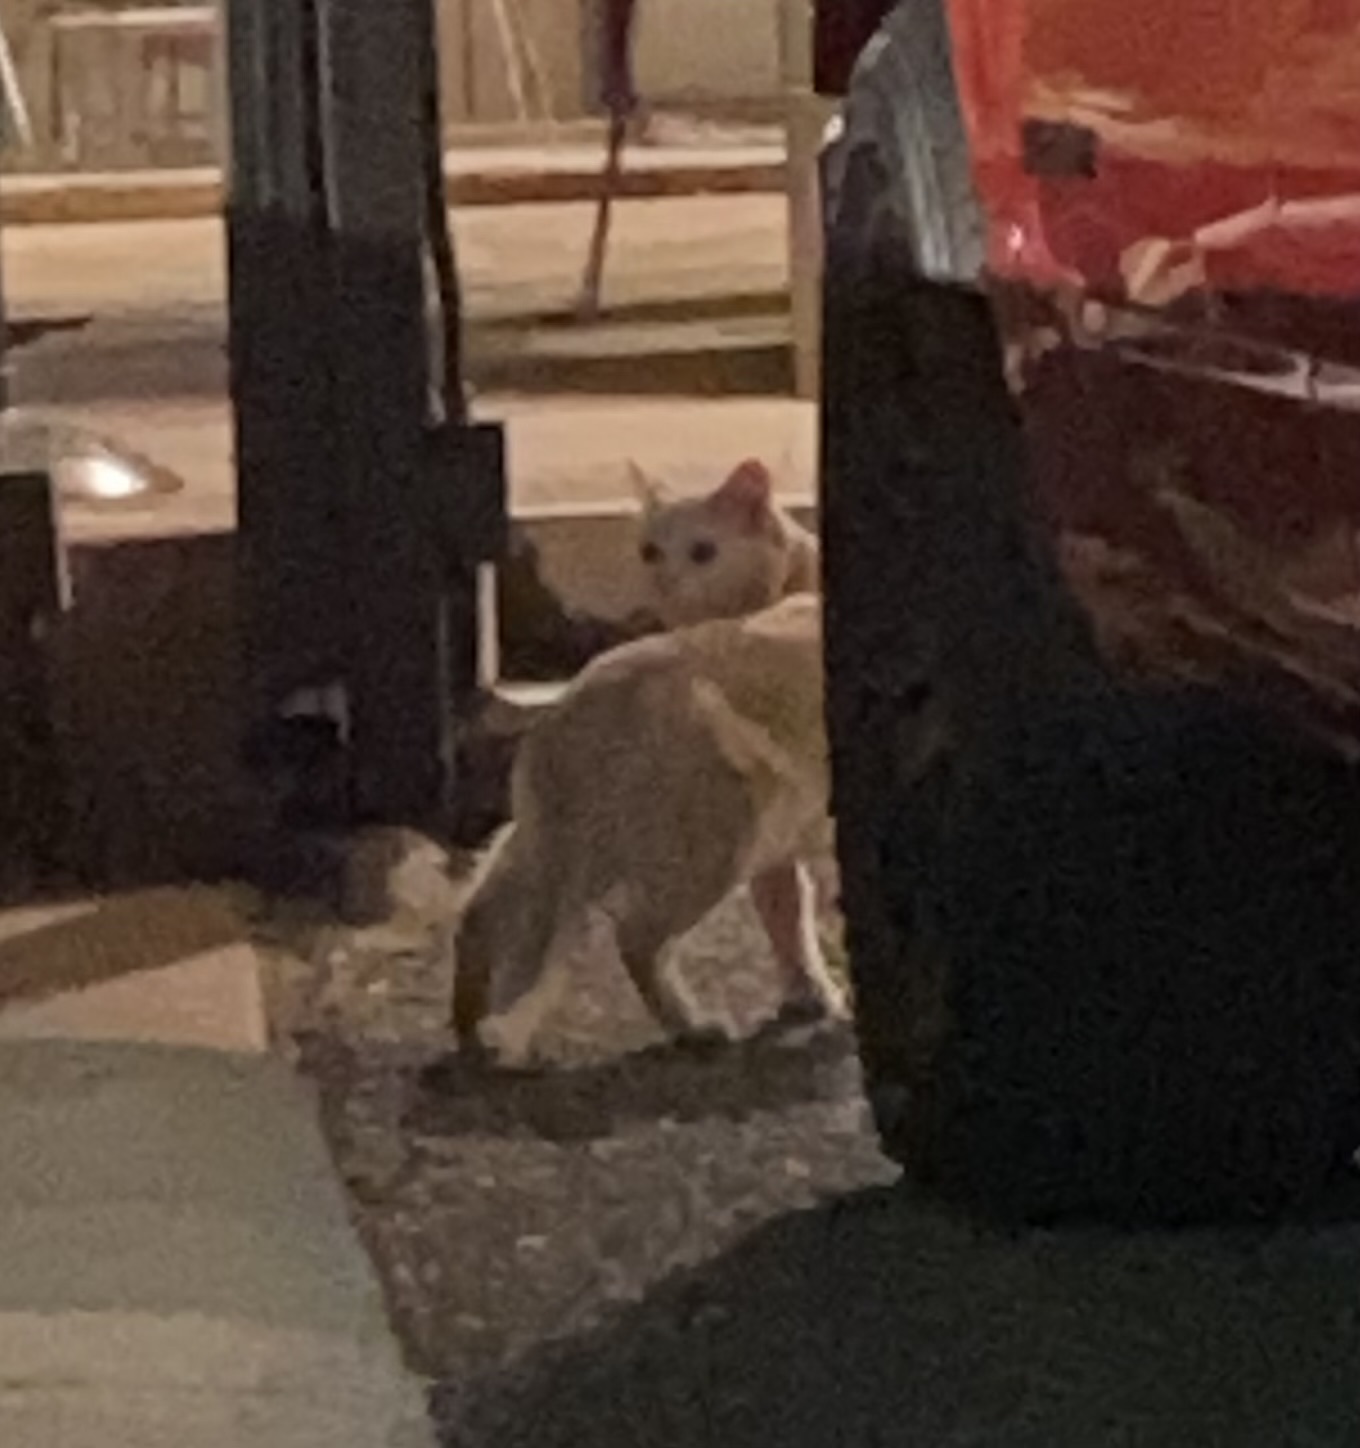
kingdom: Animalia
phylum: Chordata
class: Mammalia
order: Carnivora
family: Felidae
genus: Felis
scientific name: Felis catus
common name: Domestic cat
